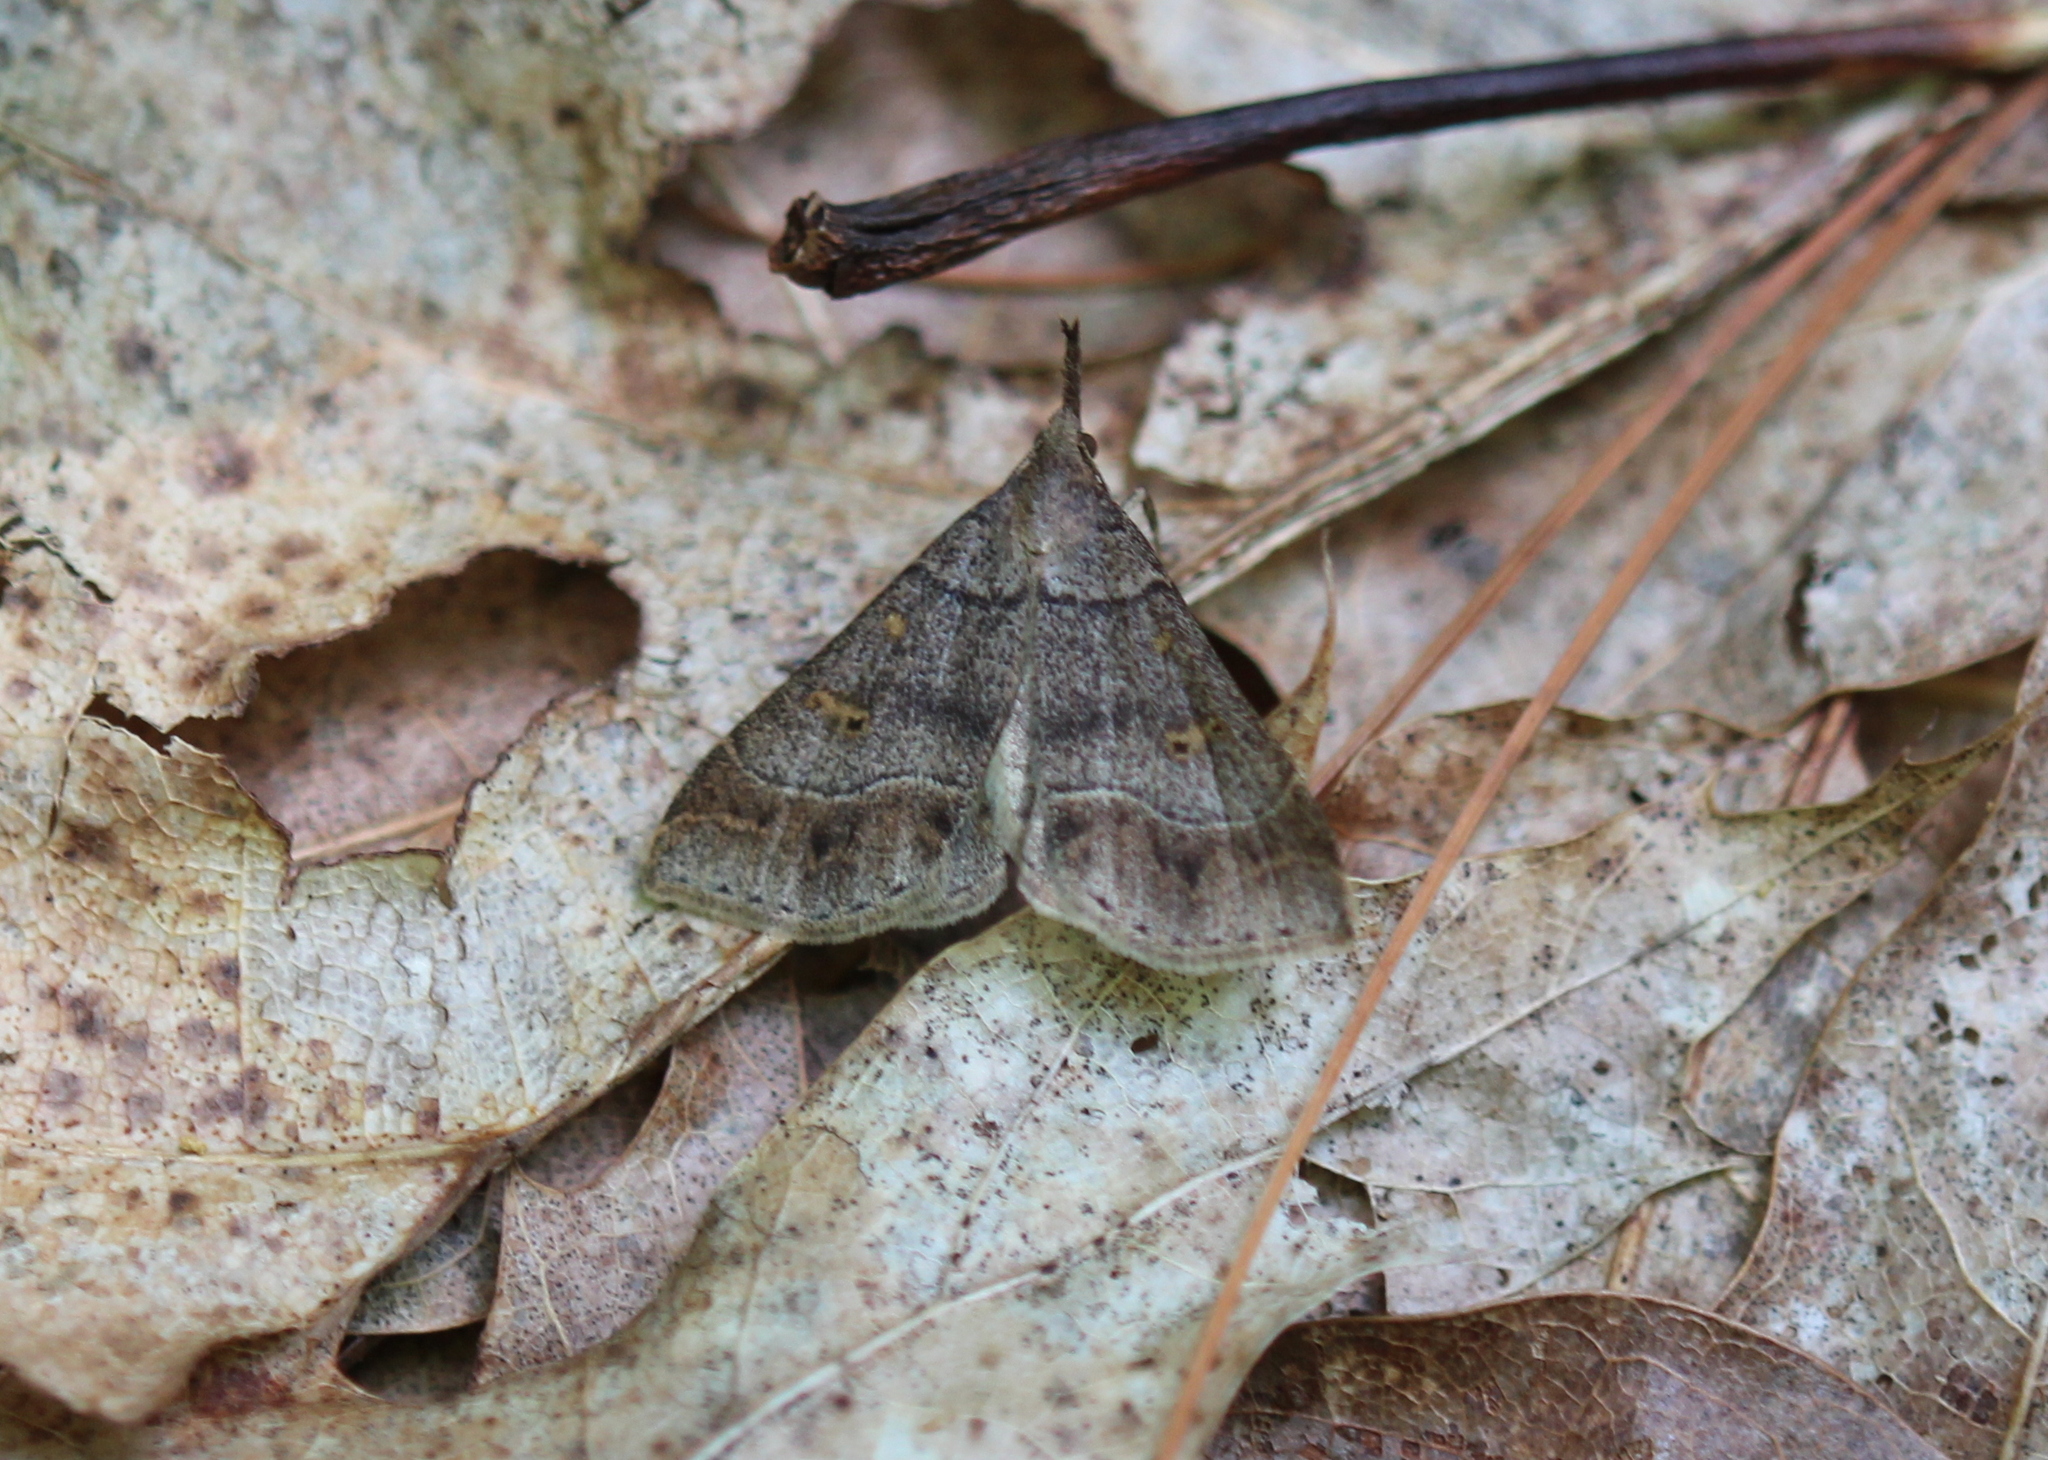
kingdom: Animalia
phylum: Arthropoda
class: Insecta
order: Lepidoptera
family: Erebidae
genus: Renia
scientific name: Renia flavipunctalis
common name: Yellow-spotted renia moth
